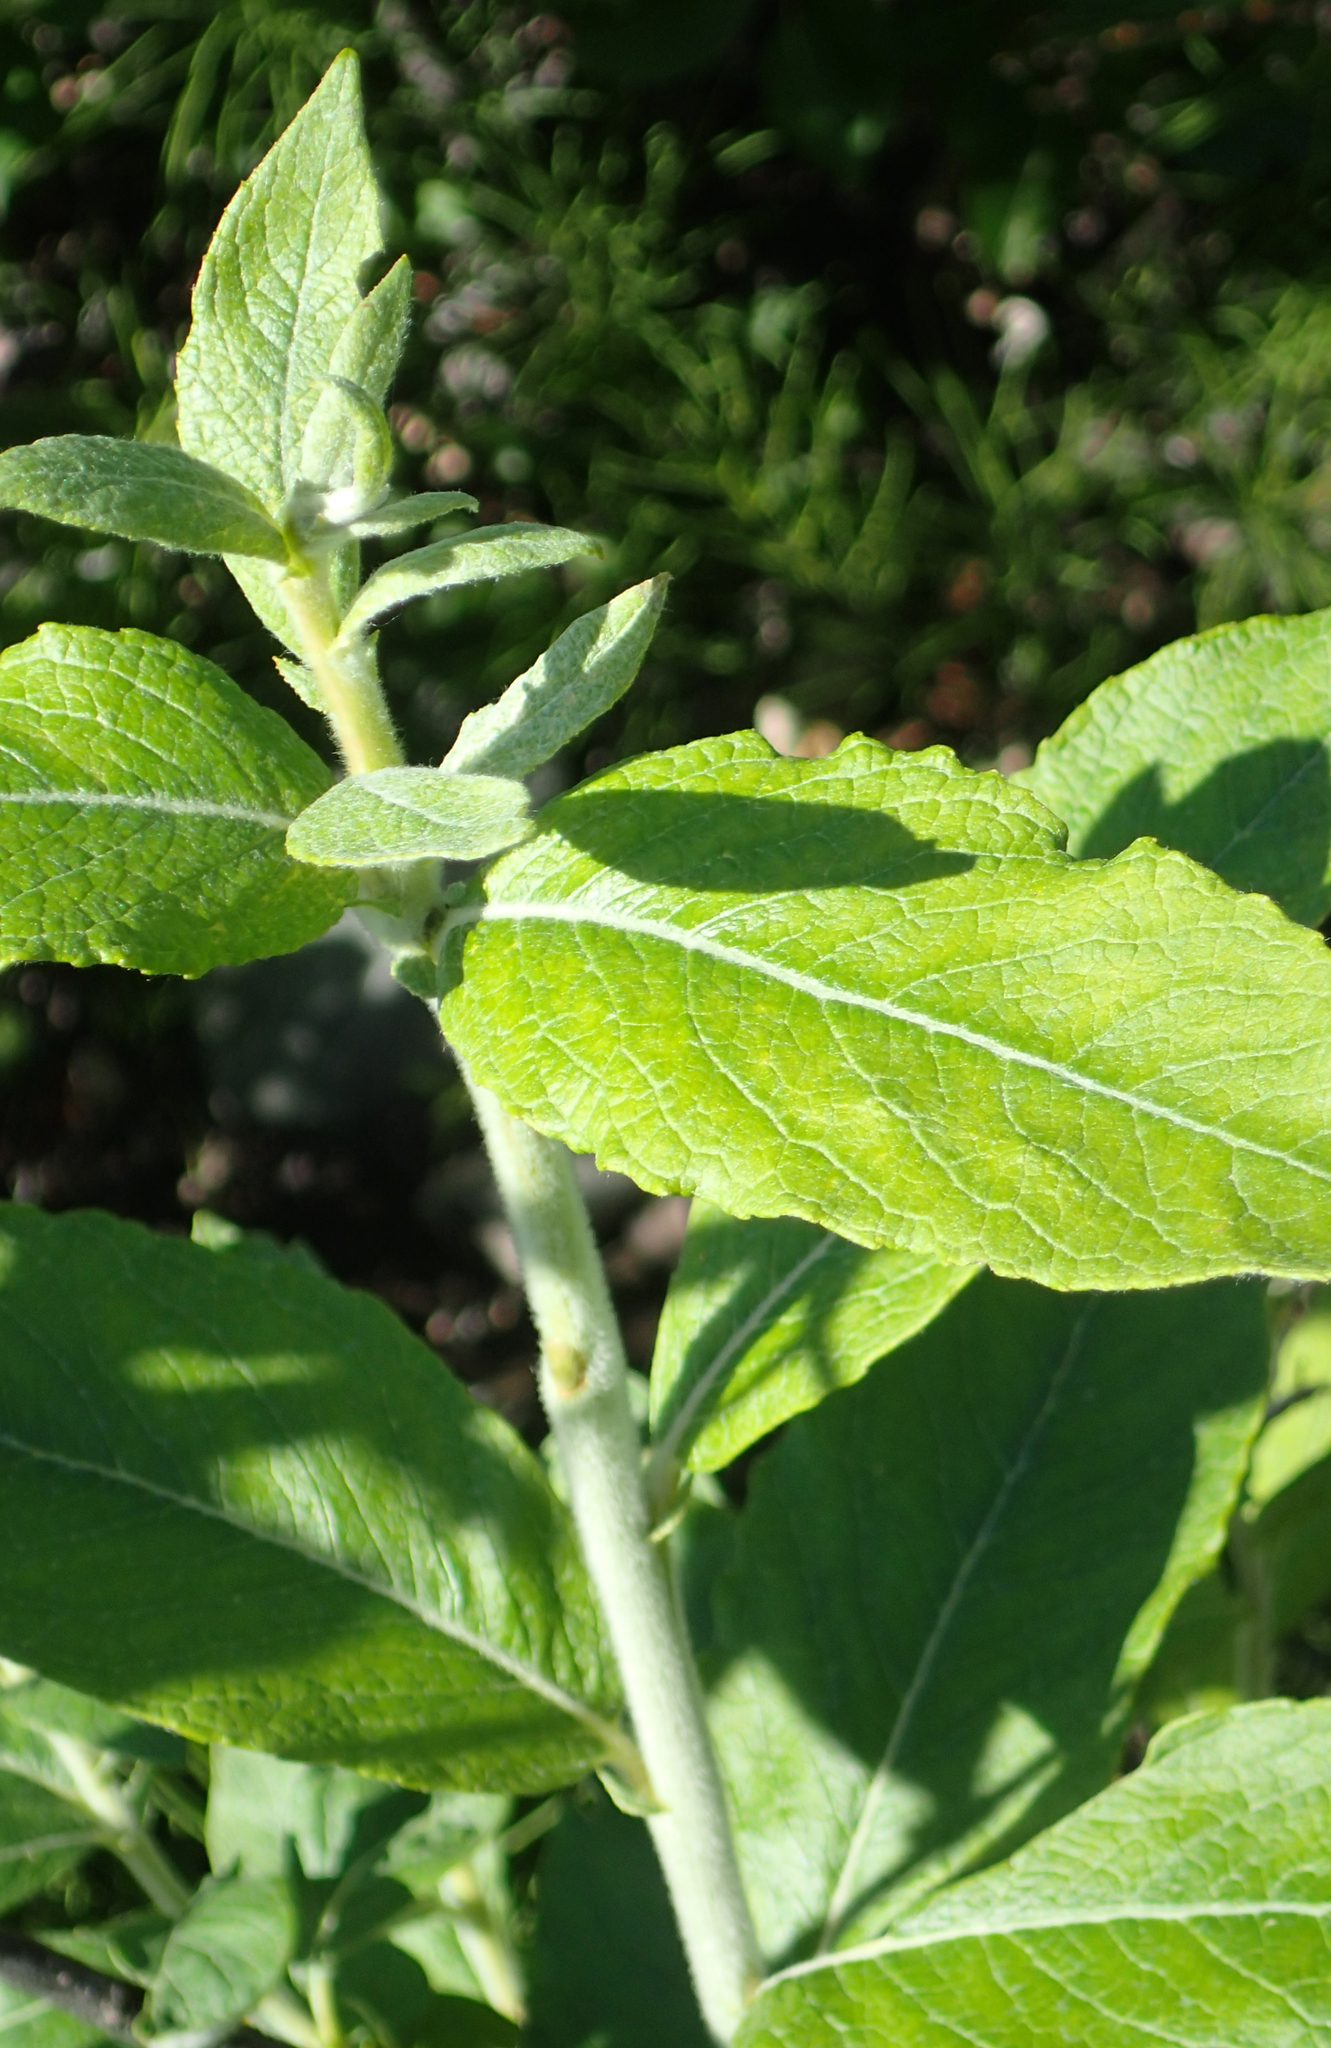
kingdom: Plantae
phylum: Tracheophyta
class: Magnoliopsida
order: Malpighiales
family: Salicaceae
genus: Salix
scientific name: Salix alaxensis
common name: Feltleaf willow
